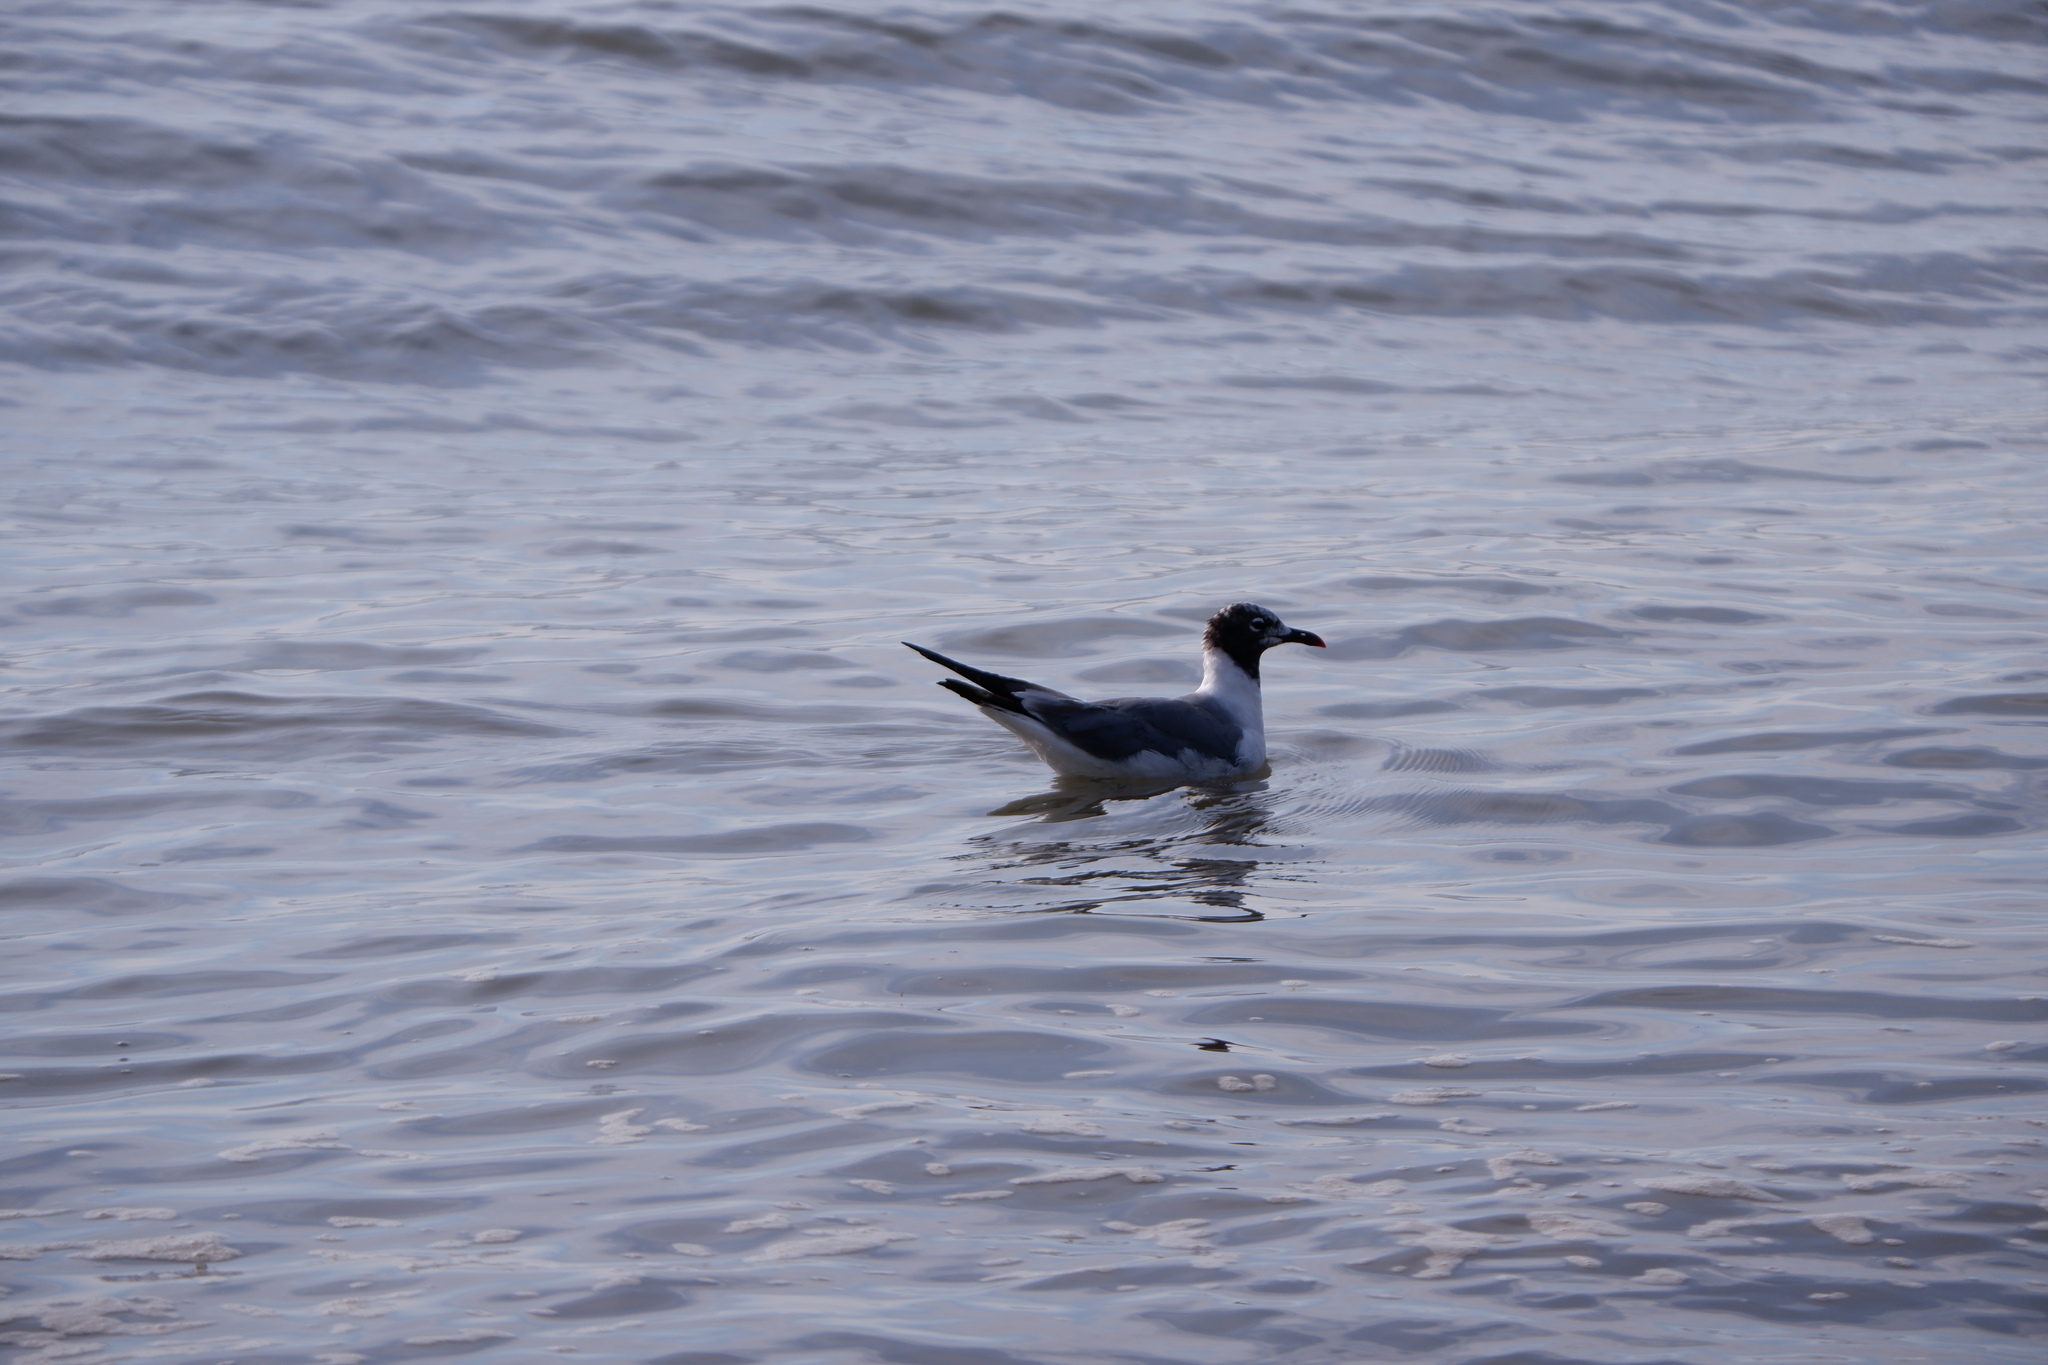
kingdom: Animalia
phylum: Chordata
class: Aves
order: Charadriiformes
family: Laridae
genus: Leucophaeus
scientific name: Leucophaeus atricilla
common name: Laughing gull
